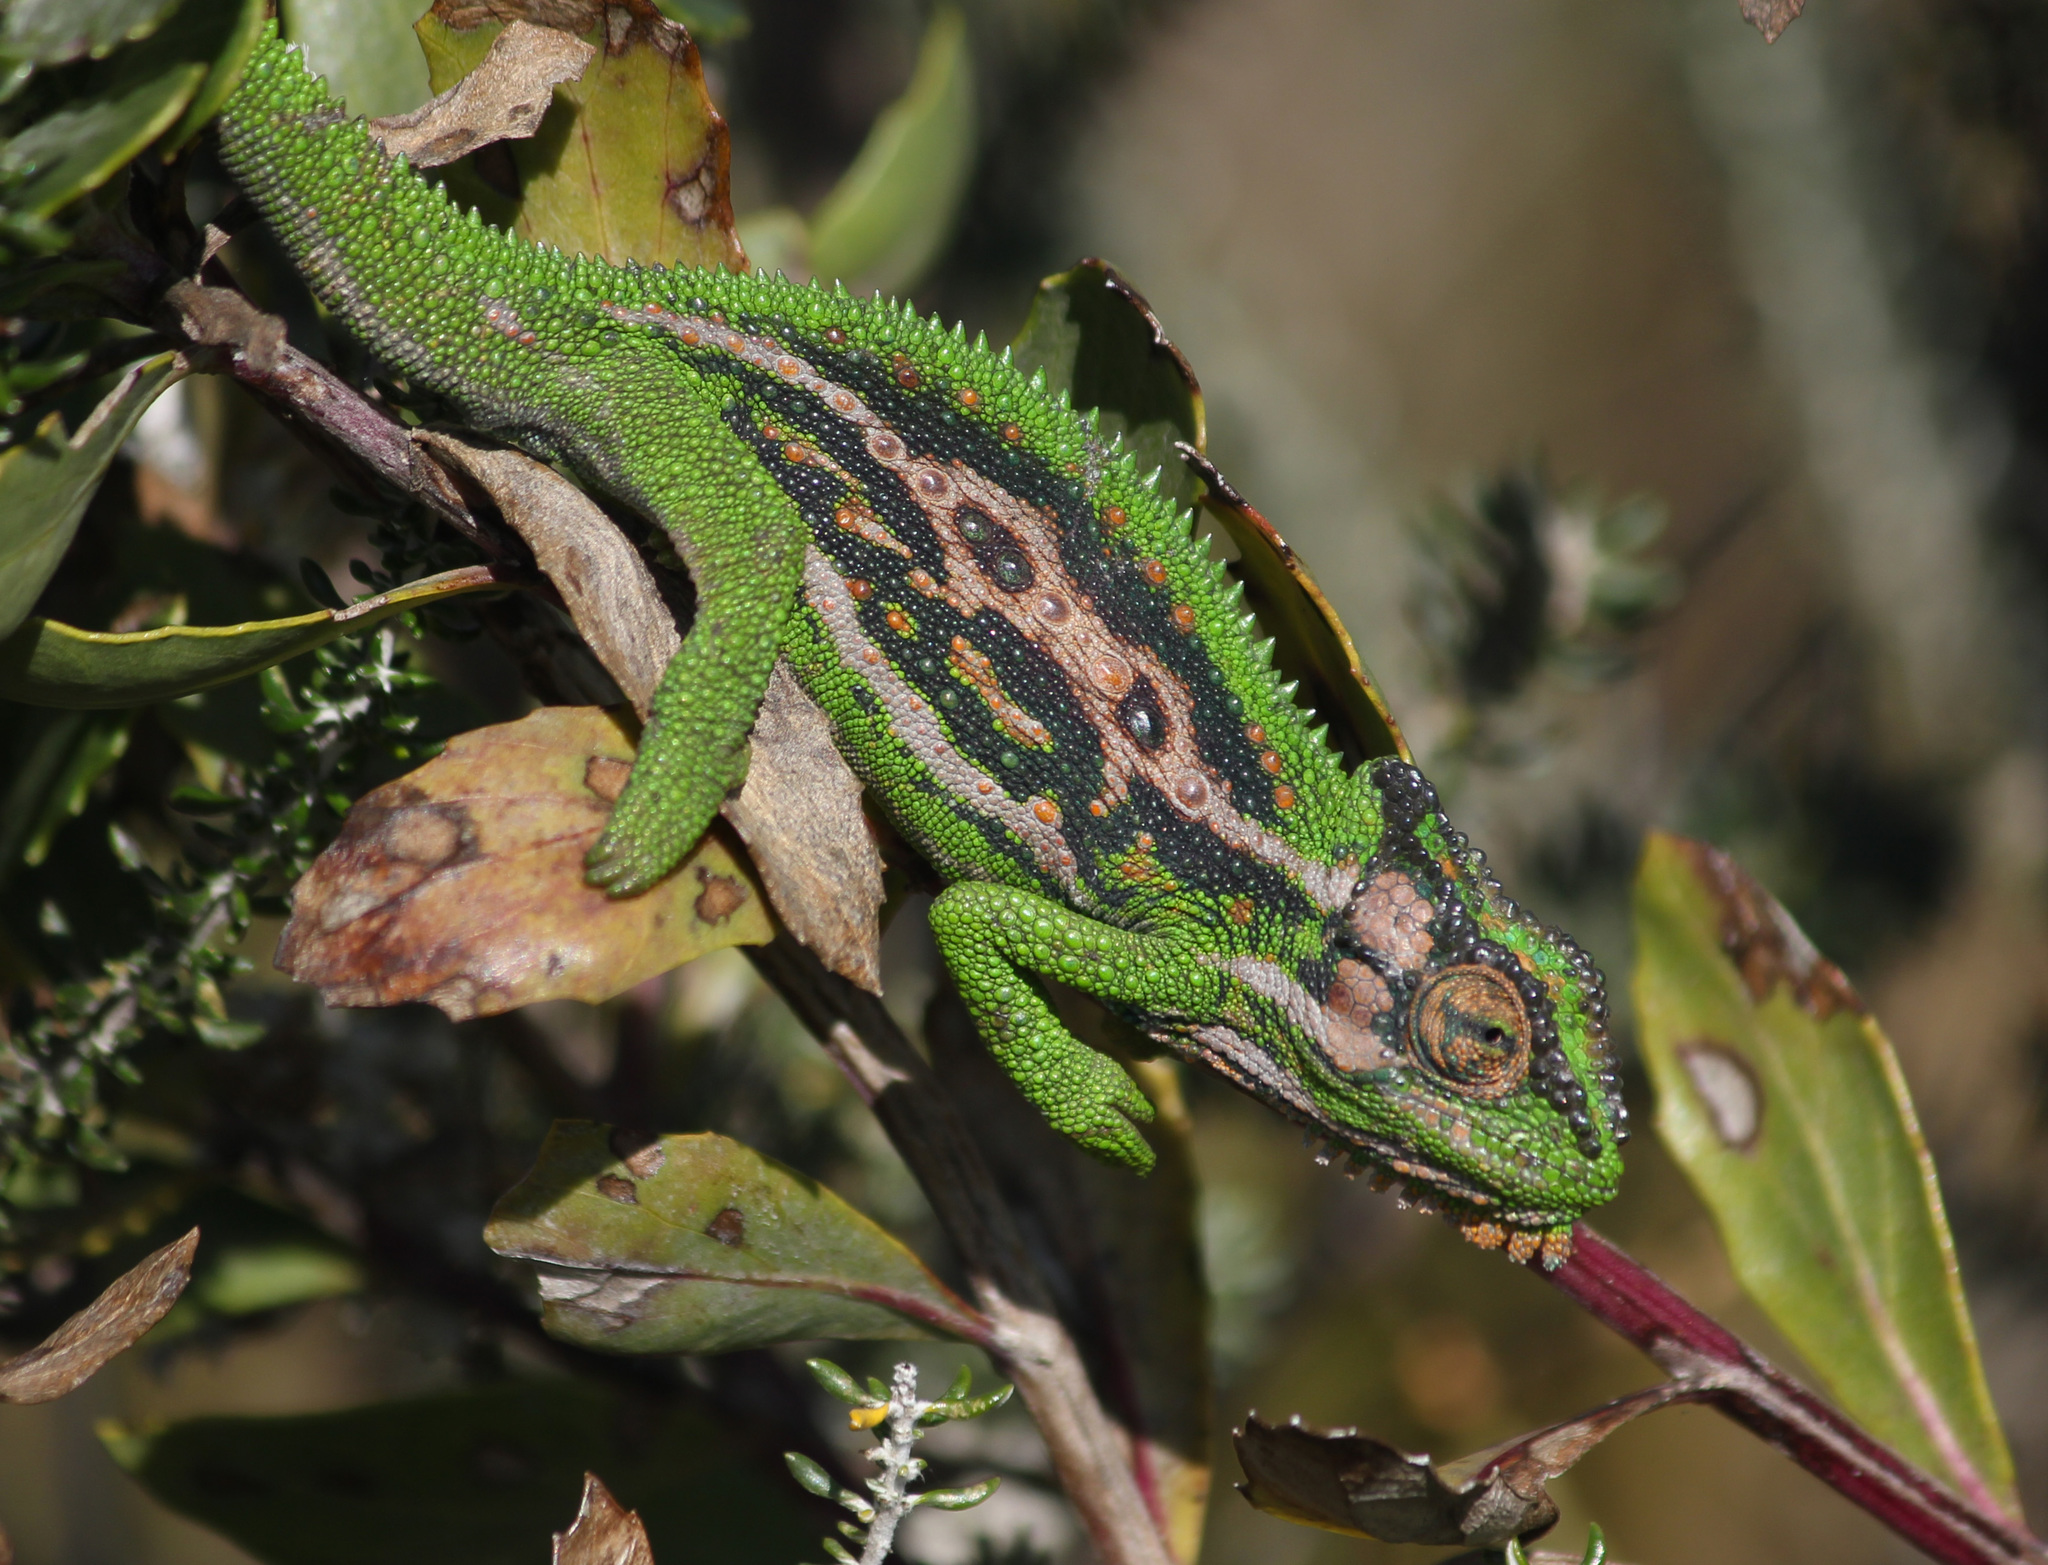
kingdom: Animalia
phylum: Chordata
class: Squamata
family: Chamaeleonidae
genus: Bradypodion
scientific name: Bradypodion pumilum
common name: Cape dwarf chameleon
